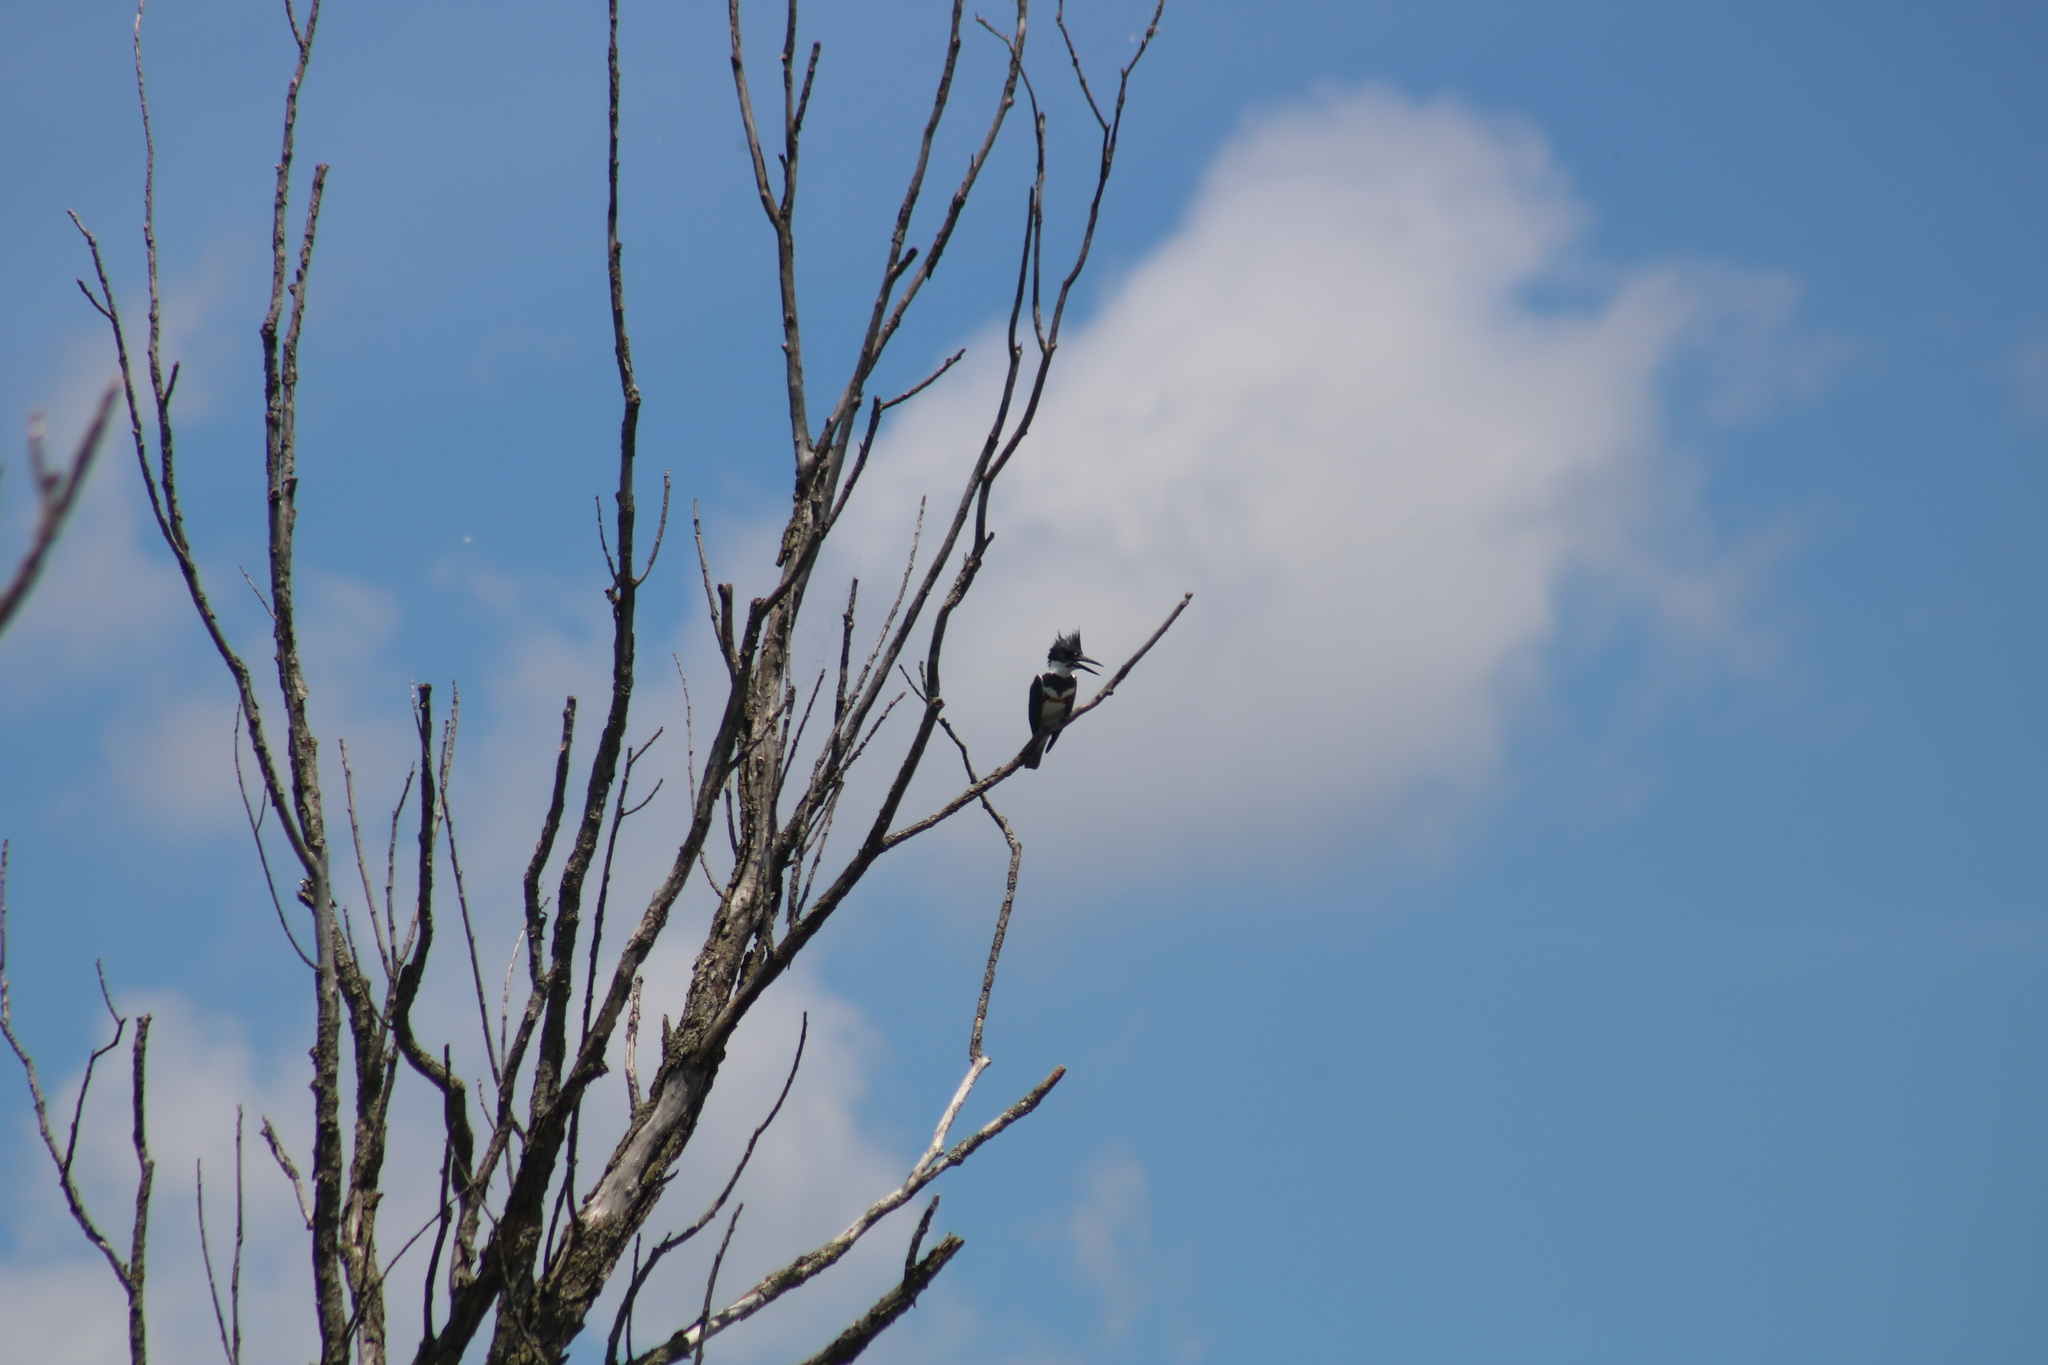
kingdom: Animalia
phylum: Chordata
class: Aves
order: Coraciiformes
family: Alcedinidae
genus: Megaceryle
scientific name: Megaceryle alcyon
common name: Belted kingfisher
